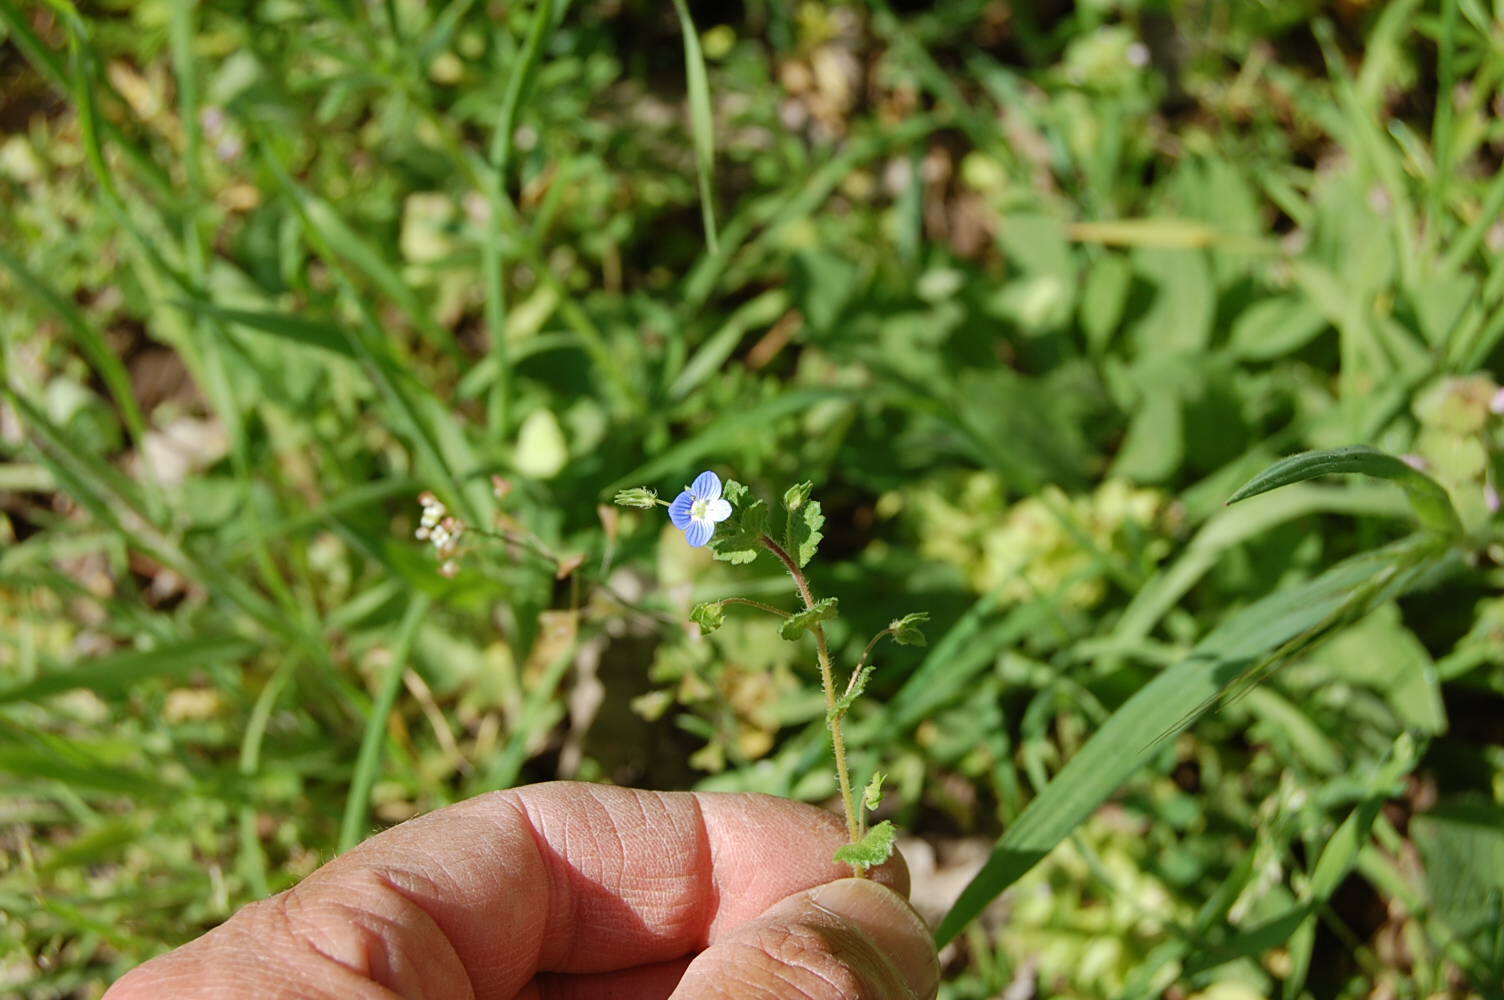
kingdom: Plantae
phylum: Tracheophyta
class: Magnoliopsida
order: Lamiales
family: Plantaginaceae
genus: Veronica
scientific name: Veronica persica
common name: Common field-speedwell
